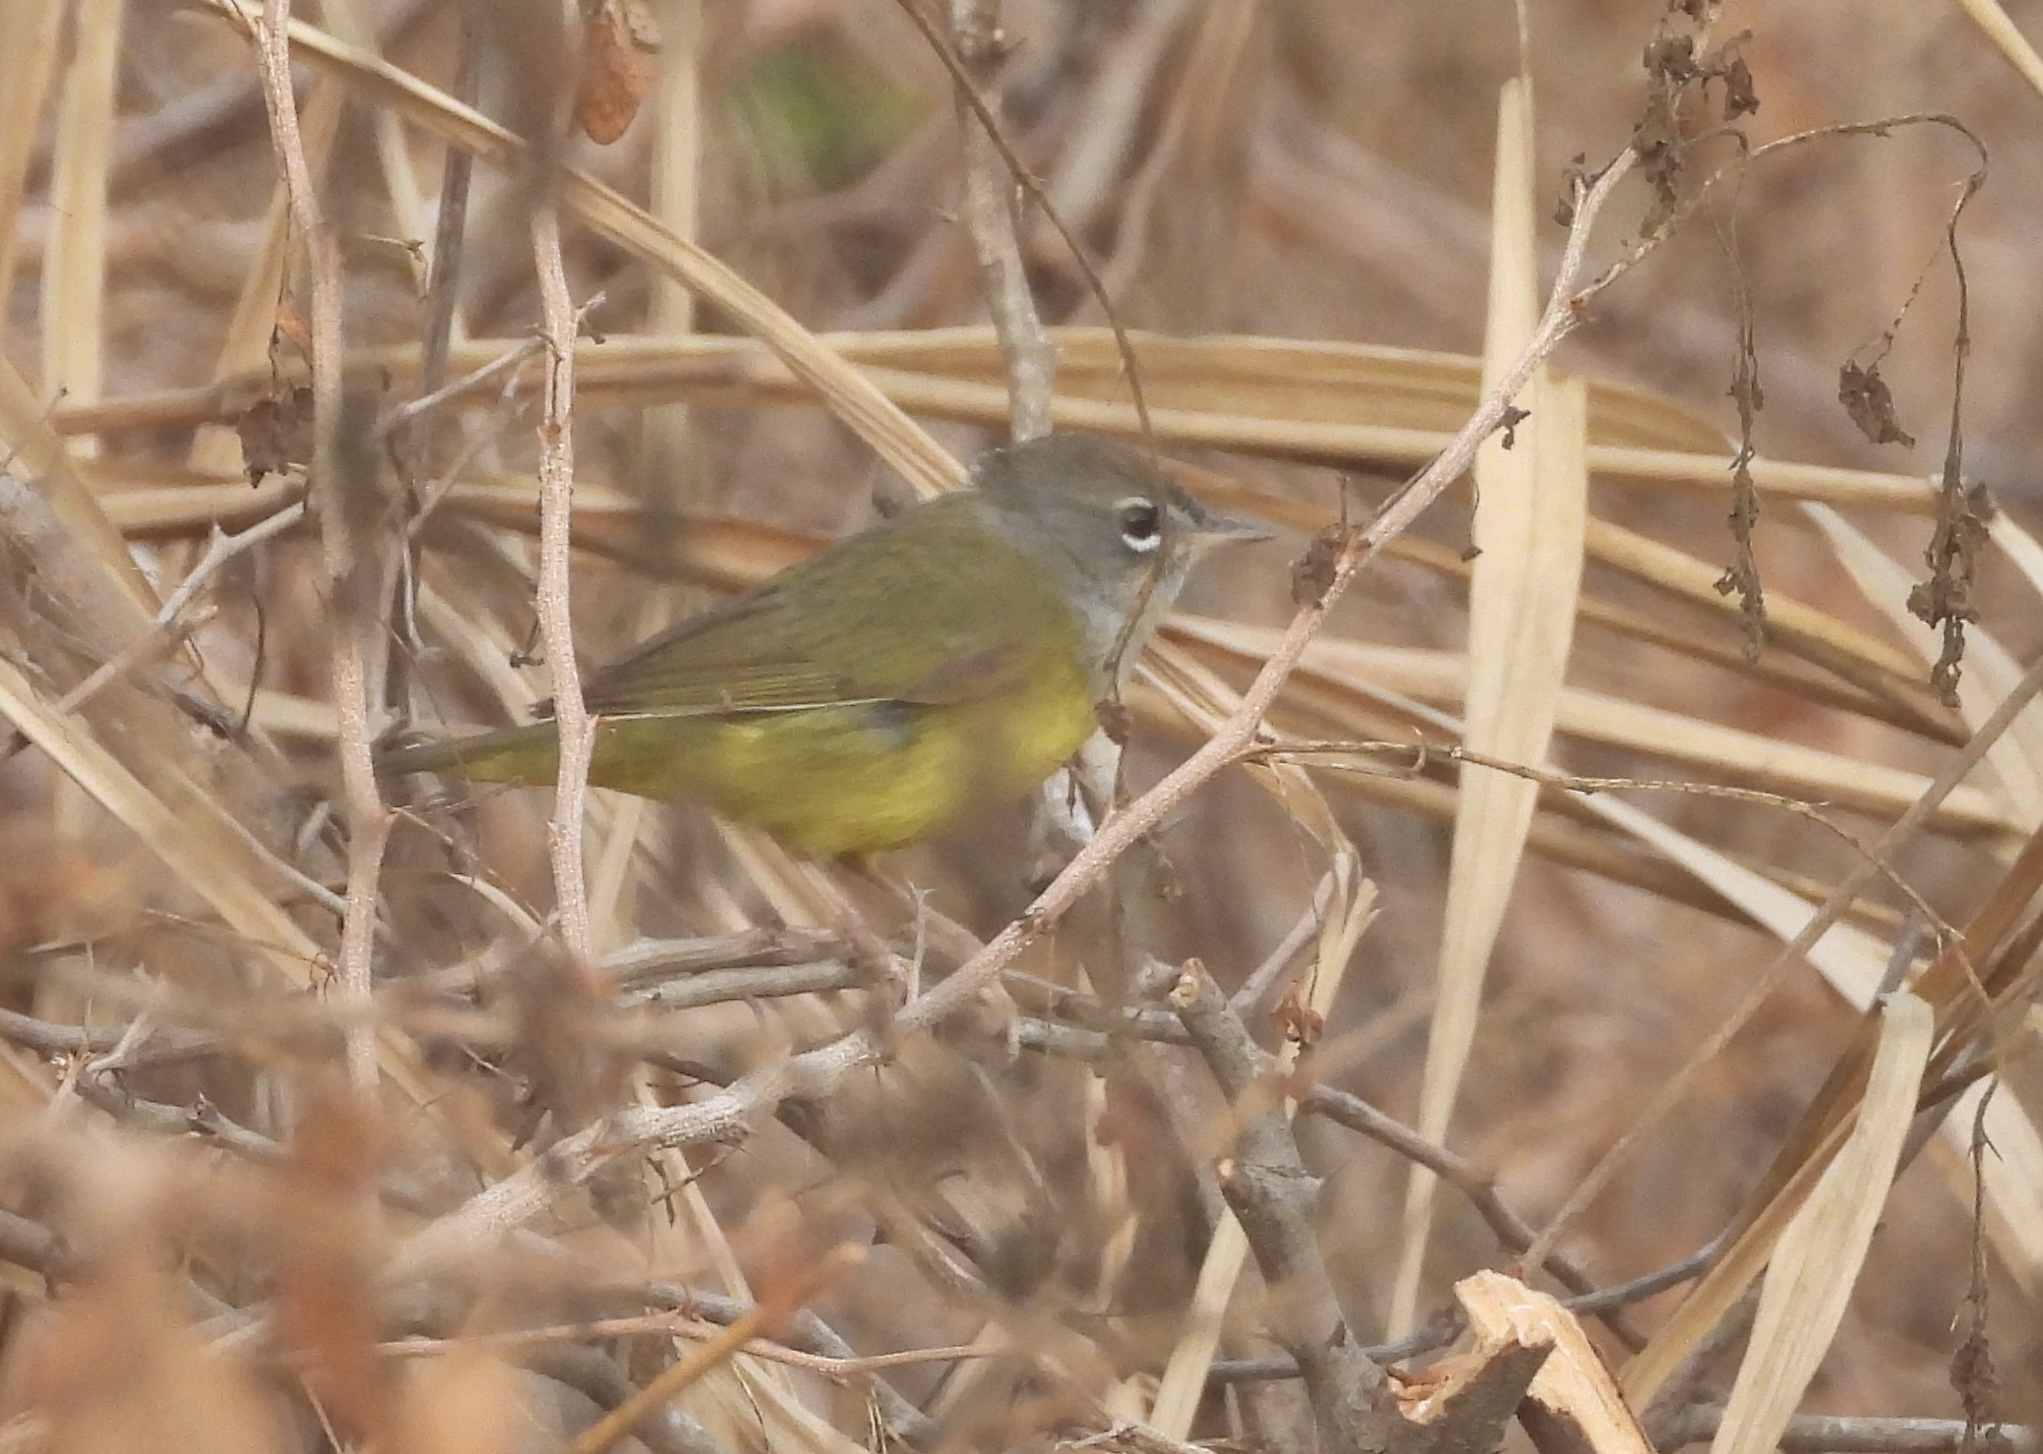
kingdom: Animalia
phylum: Chordata
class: Aves
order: Passeriformes
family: Parulidae
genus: Geothlypis
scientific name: Geothlypis tolmiei
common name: Macgillivray's warbler
